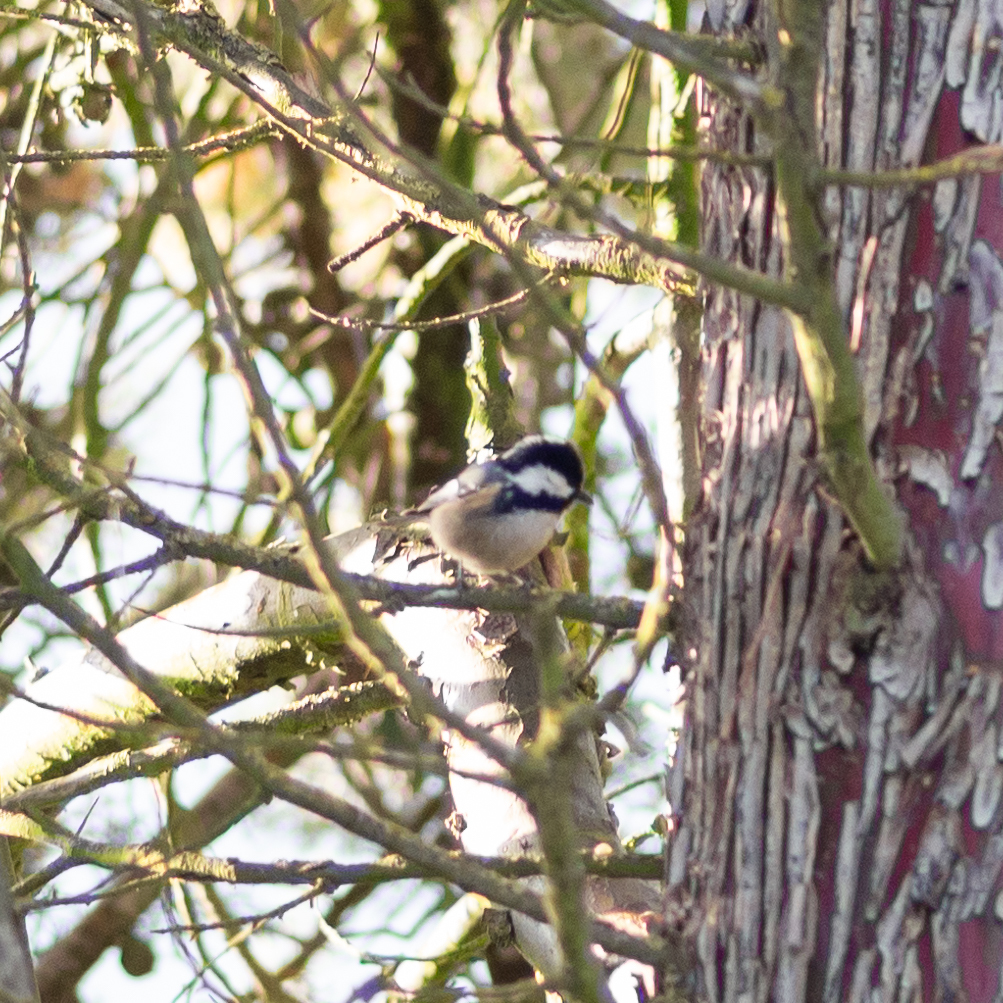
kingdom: Animalia
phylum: Chordata
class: Aves
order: Passeriformes
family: Paridae
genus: Periparus
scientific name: Periparus ater
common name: Coal tit
